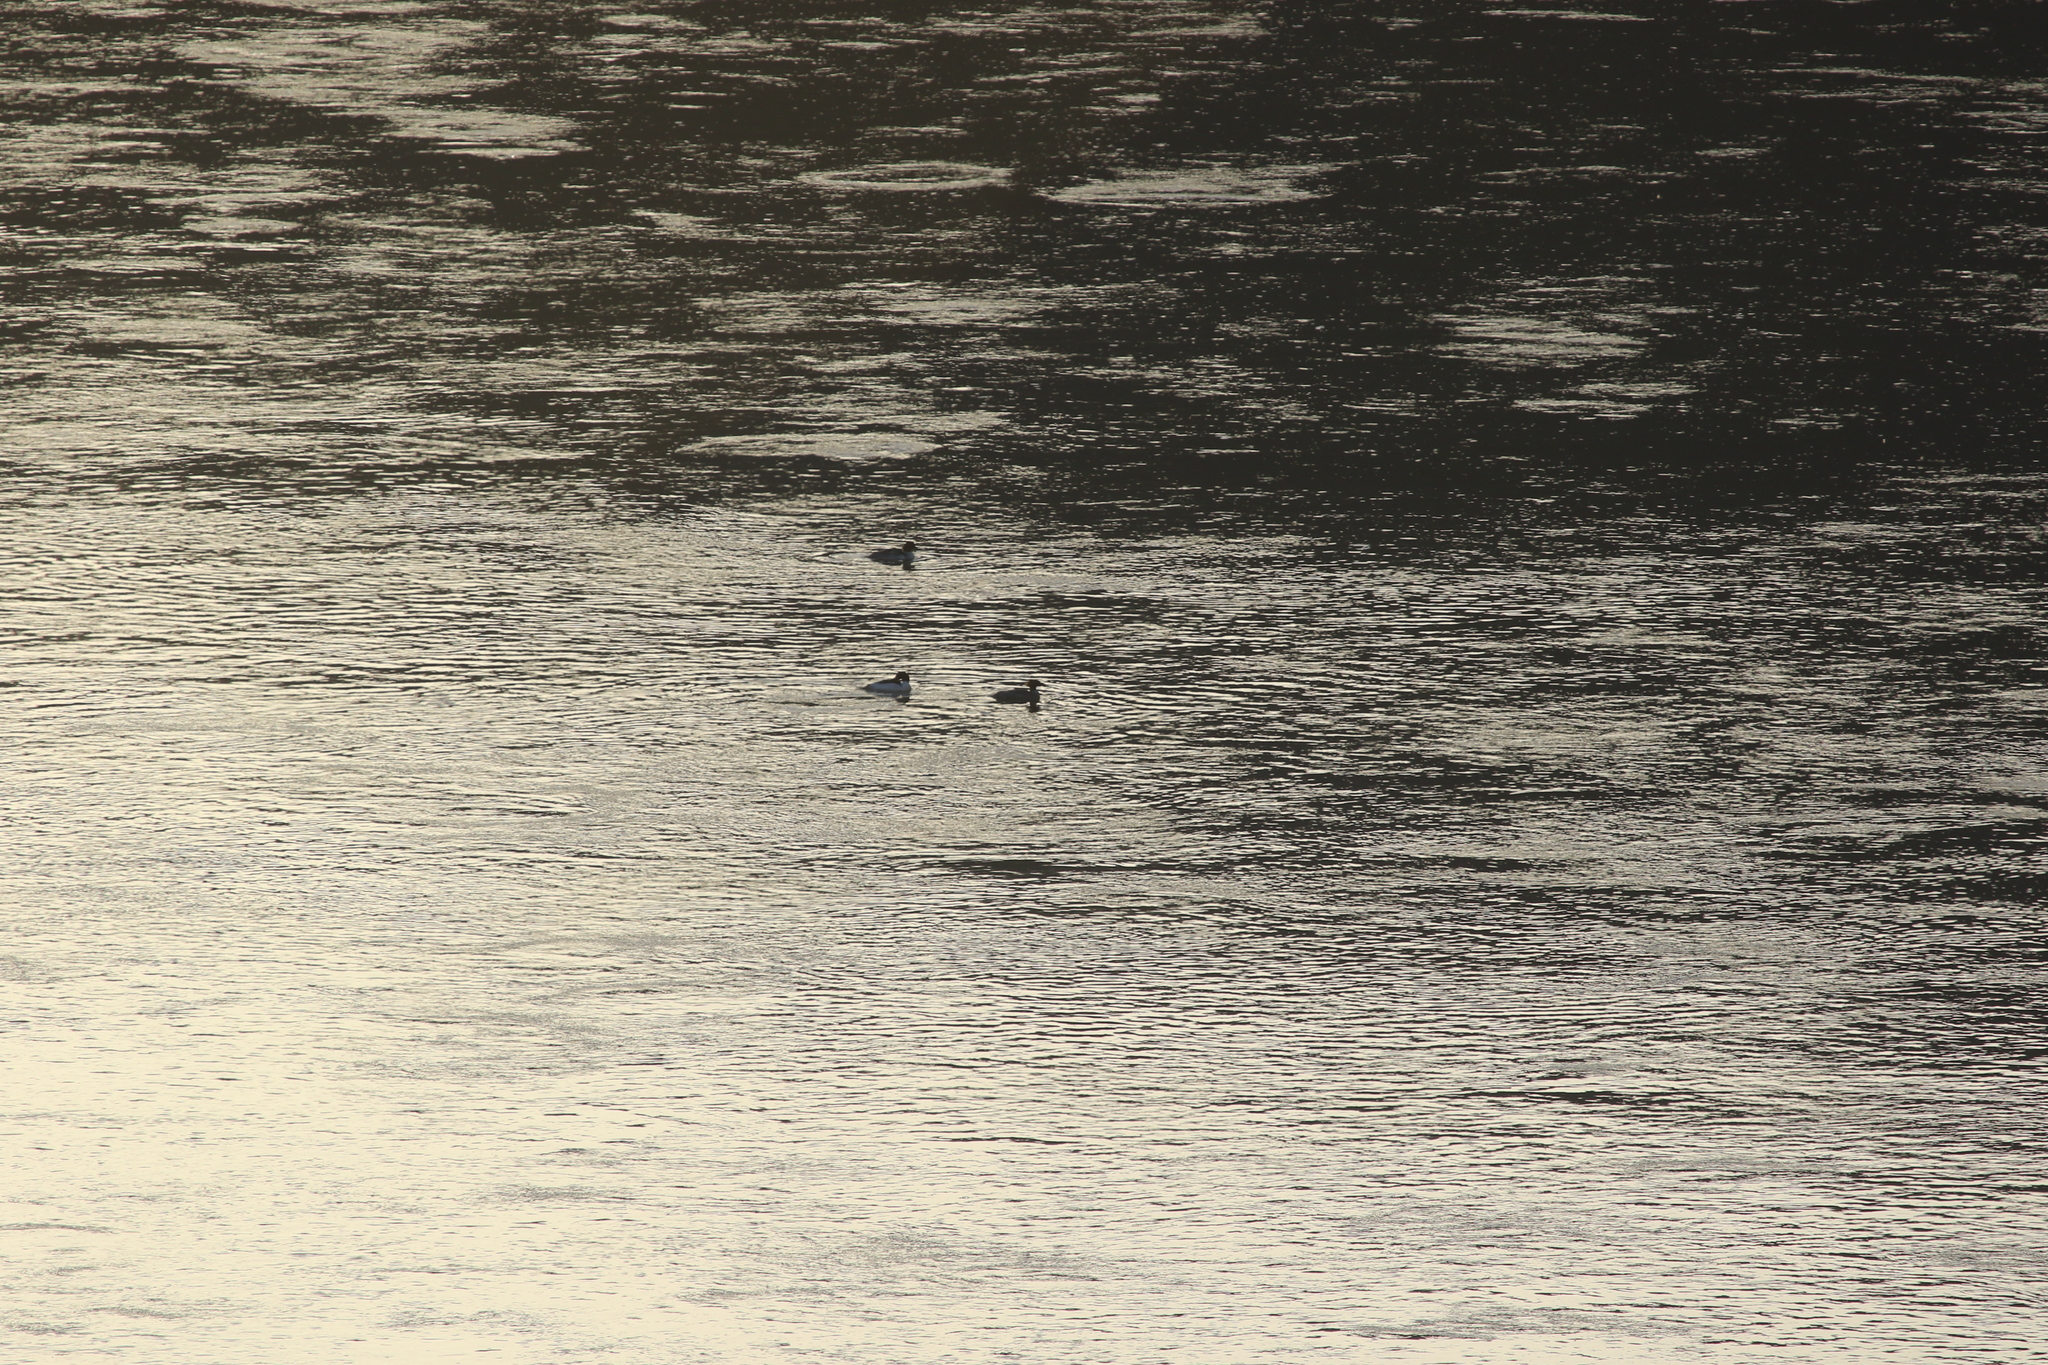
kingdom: Animalia
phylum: Chordata
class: Aves
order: Anseriformes
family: Anatidae
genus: Mergus
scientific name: Mergus merganser
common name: Common merganser
